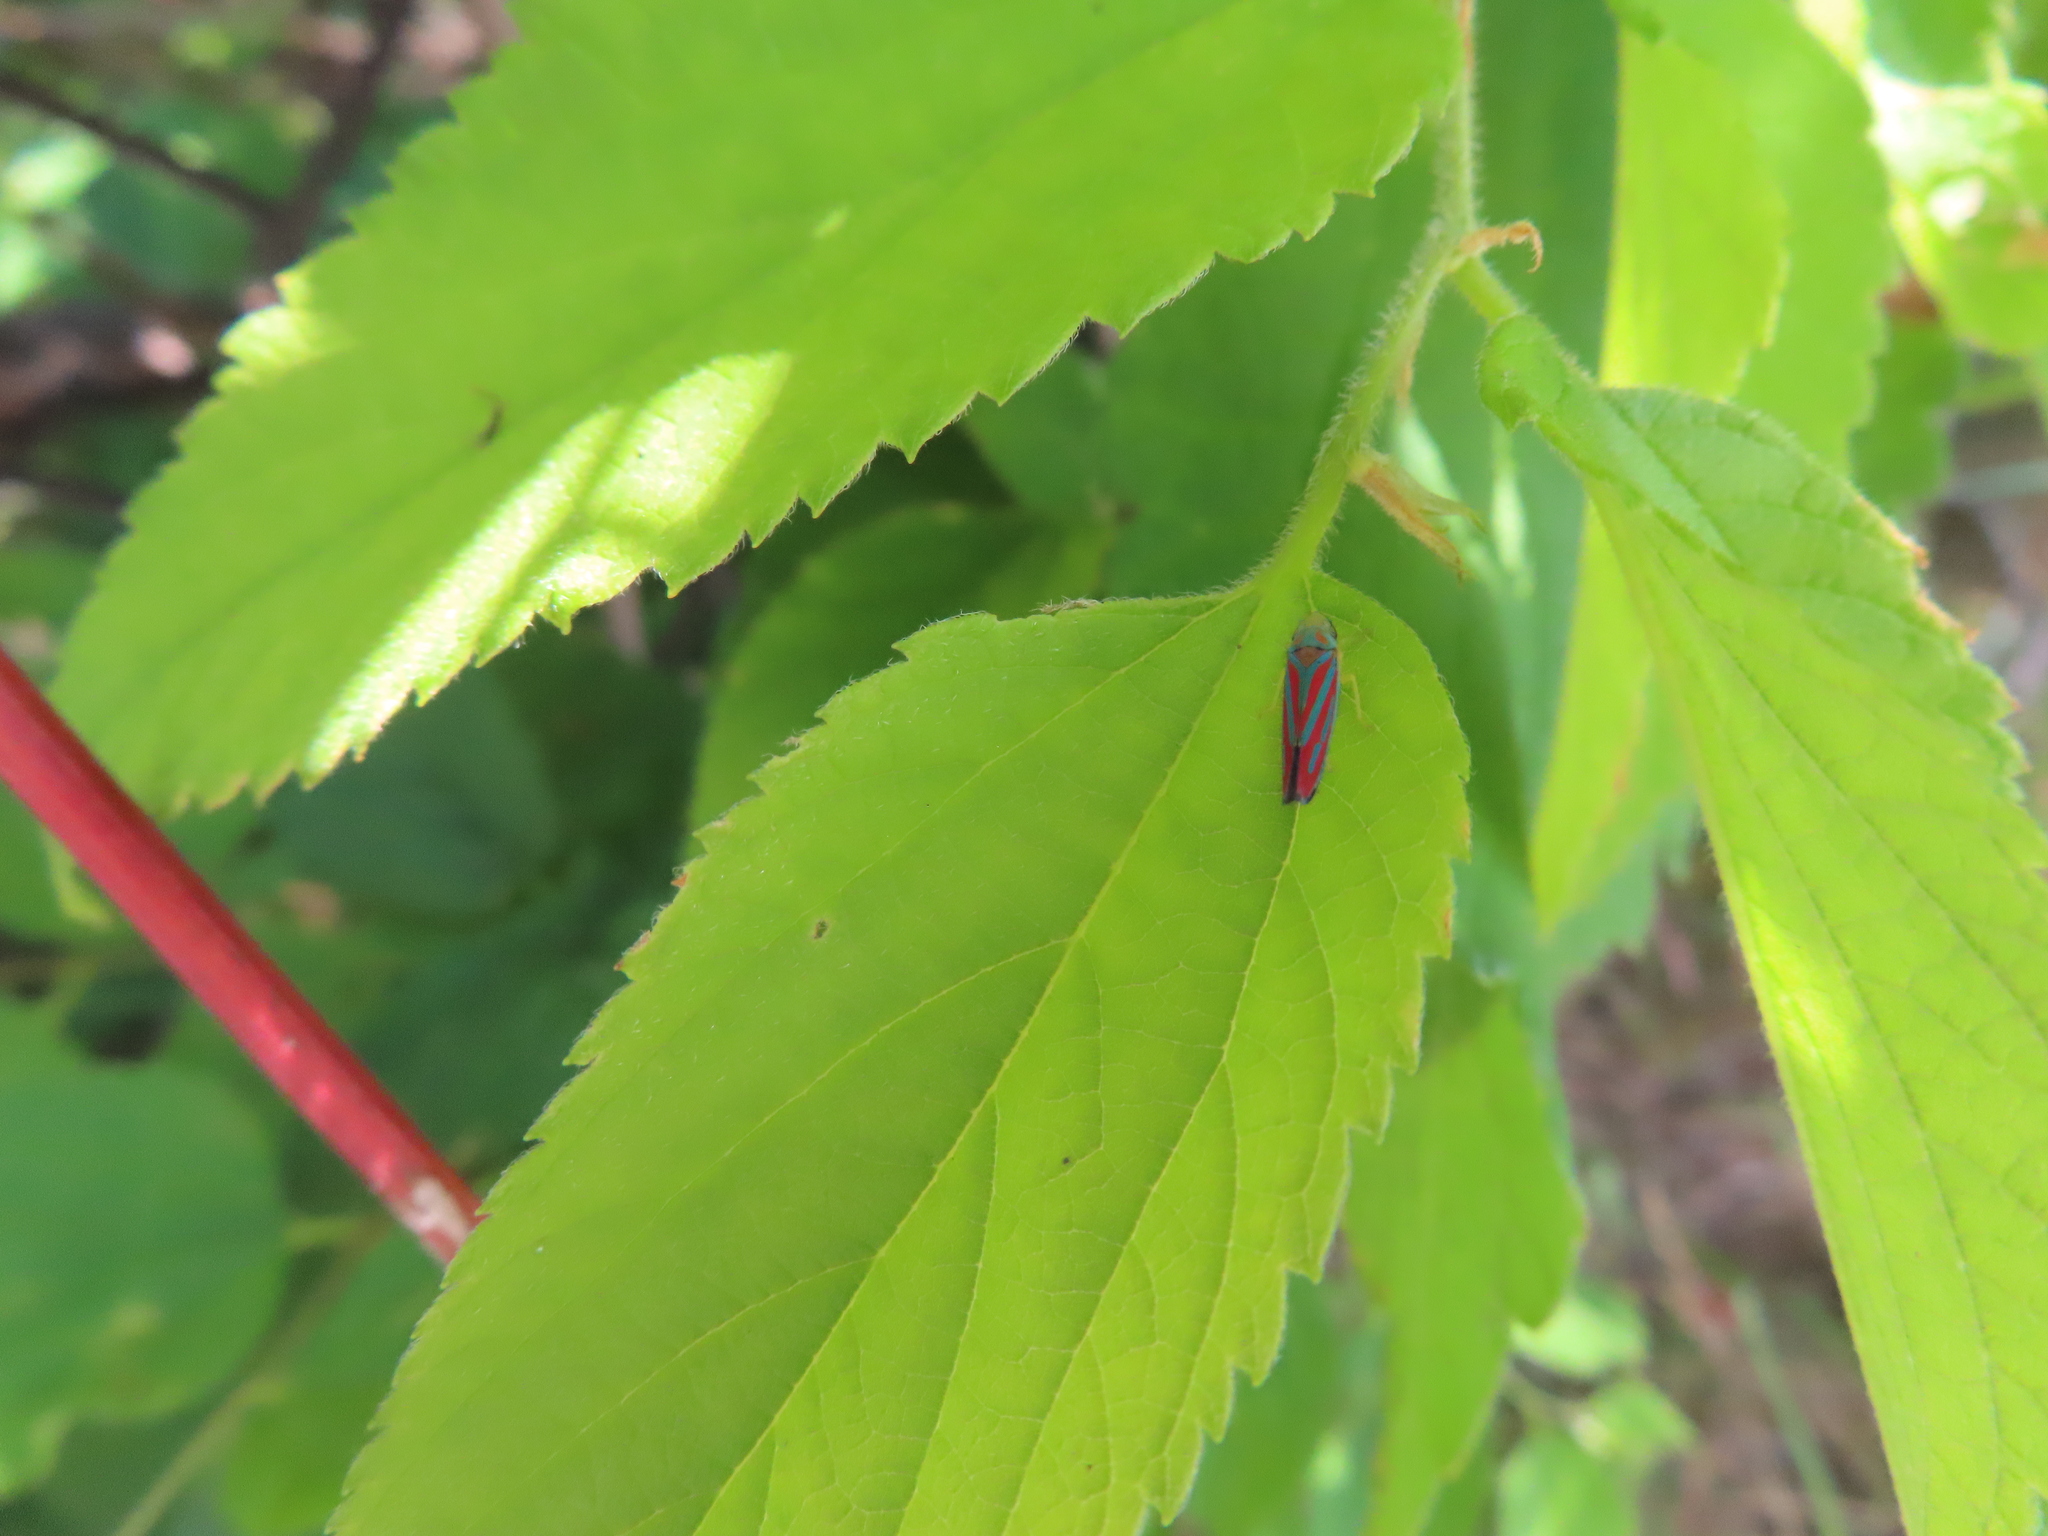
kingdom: Animalia
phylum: Arthropoda
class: Insecta
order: Hemiptera
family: Cicadellidae
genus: Graphocephala
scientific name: Graphocephala coccinea
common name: Candy-striped leafhopper
